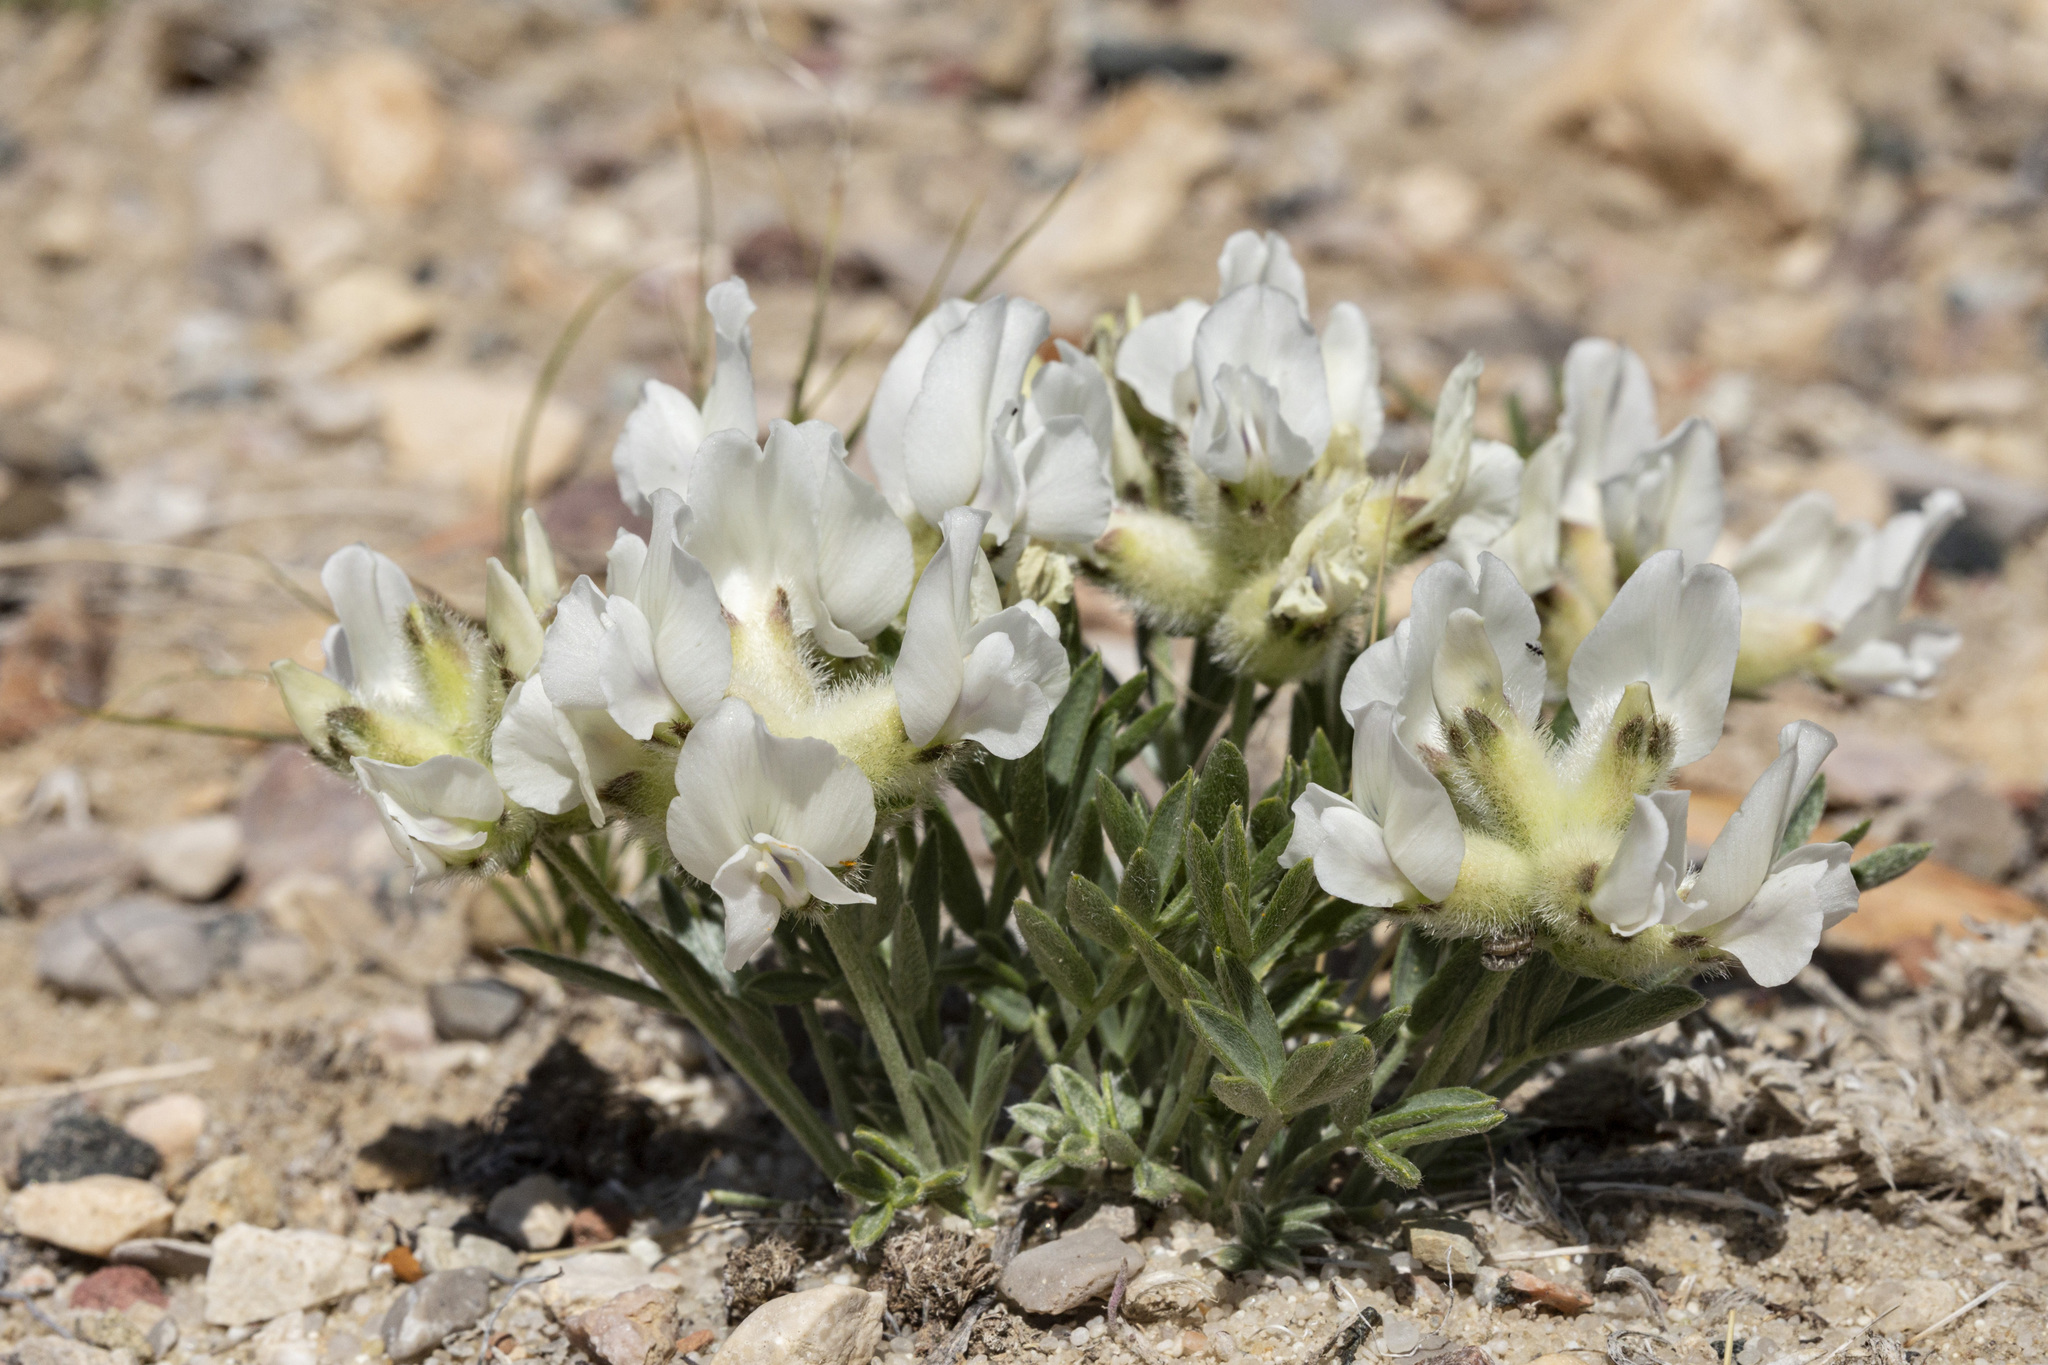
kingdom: Plantae
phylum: Tracheophyta
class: Magnoliopsida
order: Fabales
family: Fabaceae
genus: Oxytropis
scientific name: Oxytropis nana
